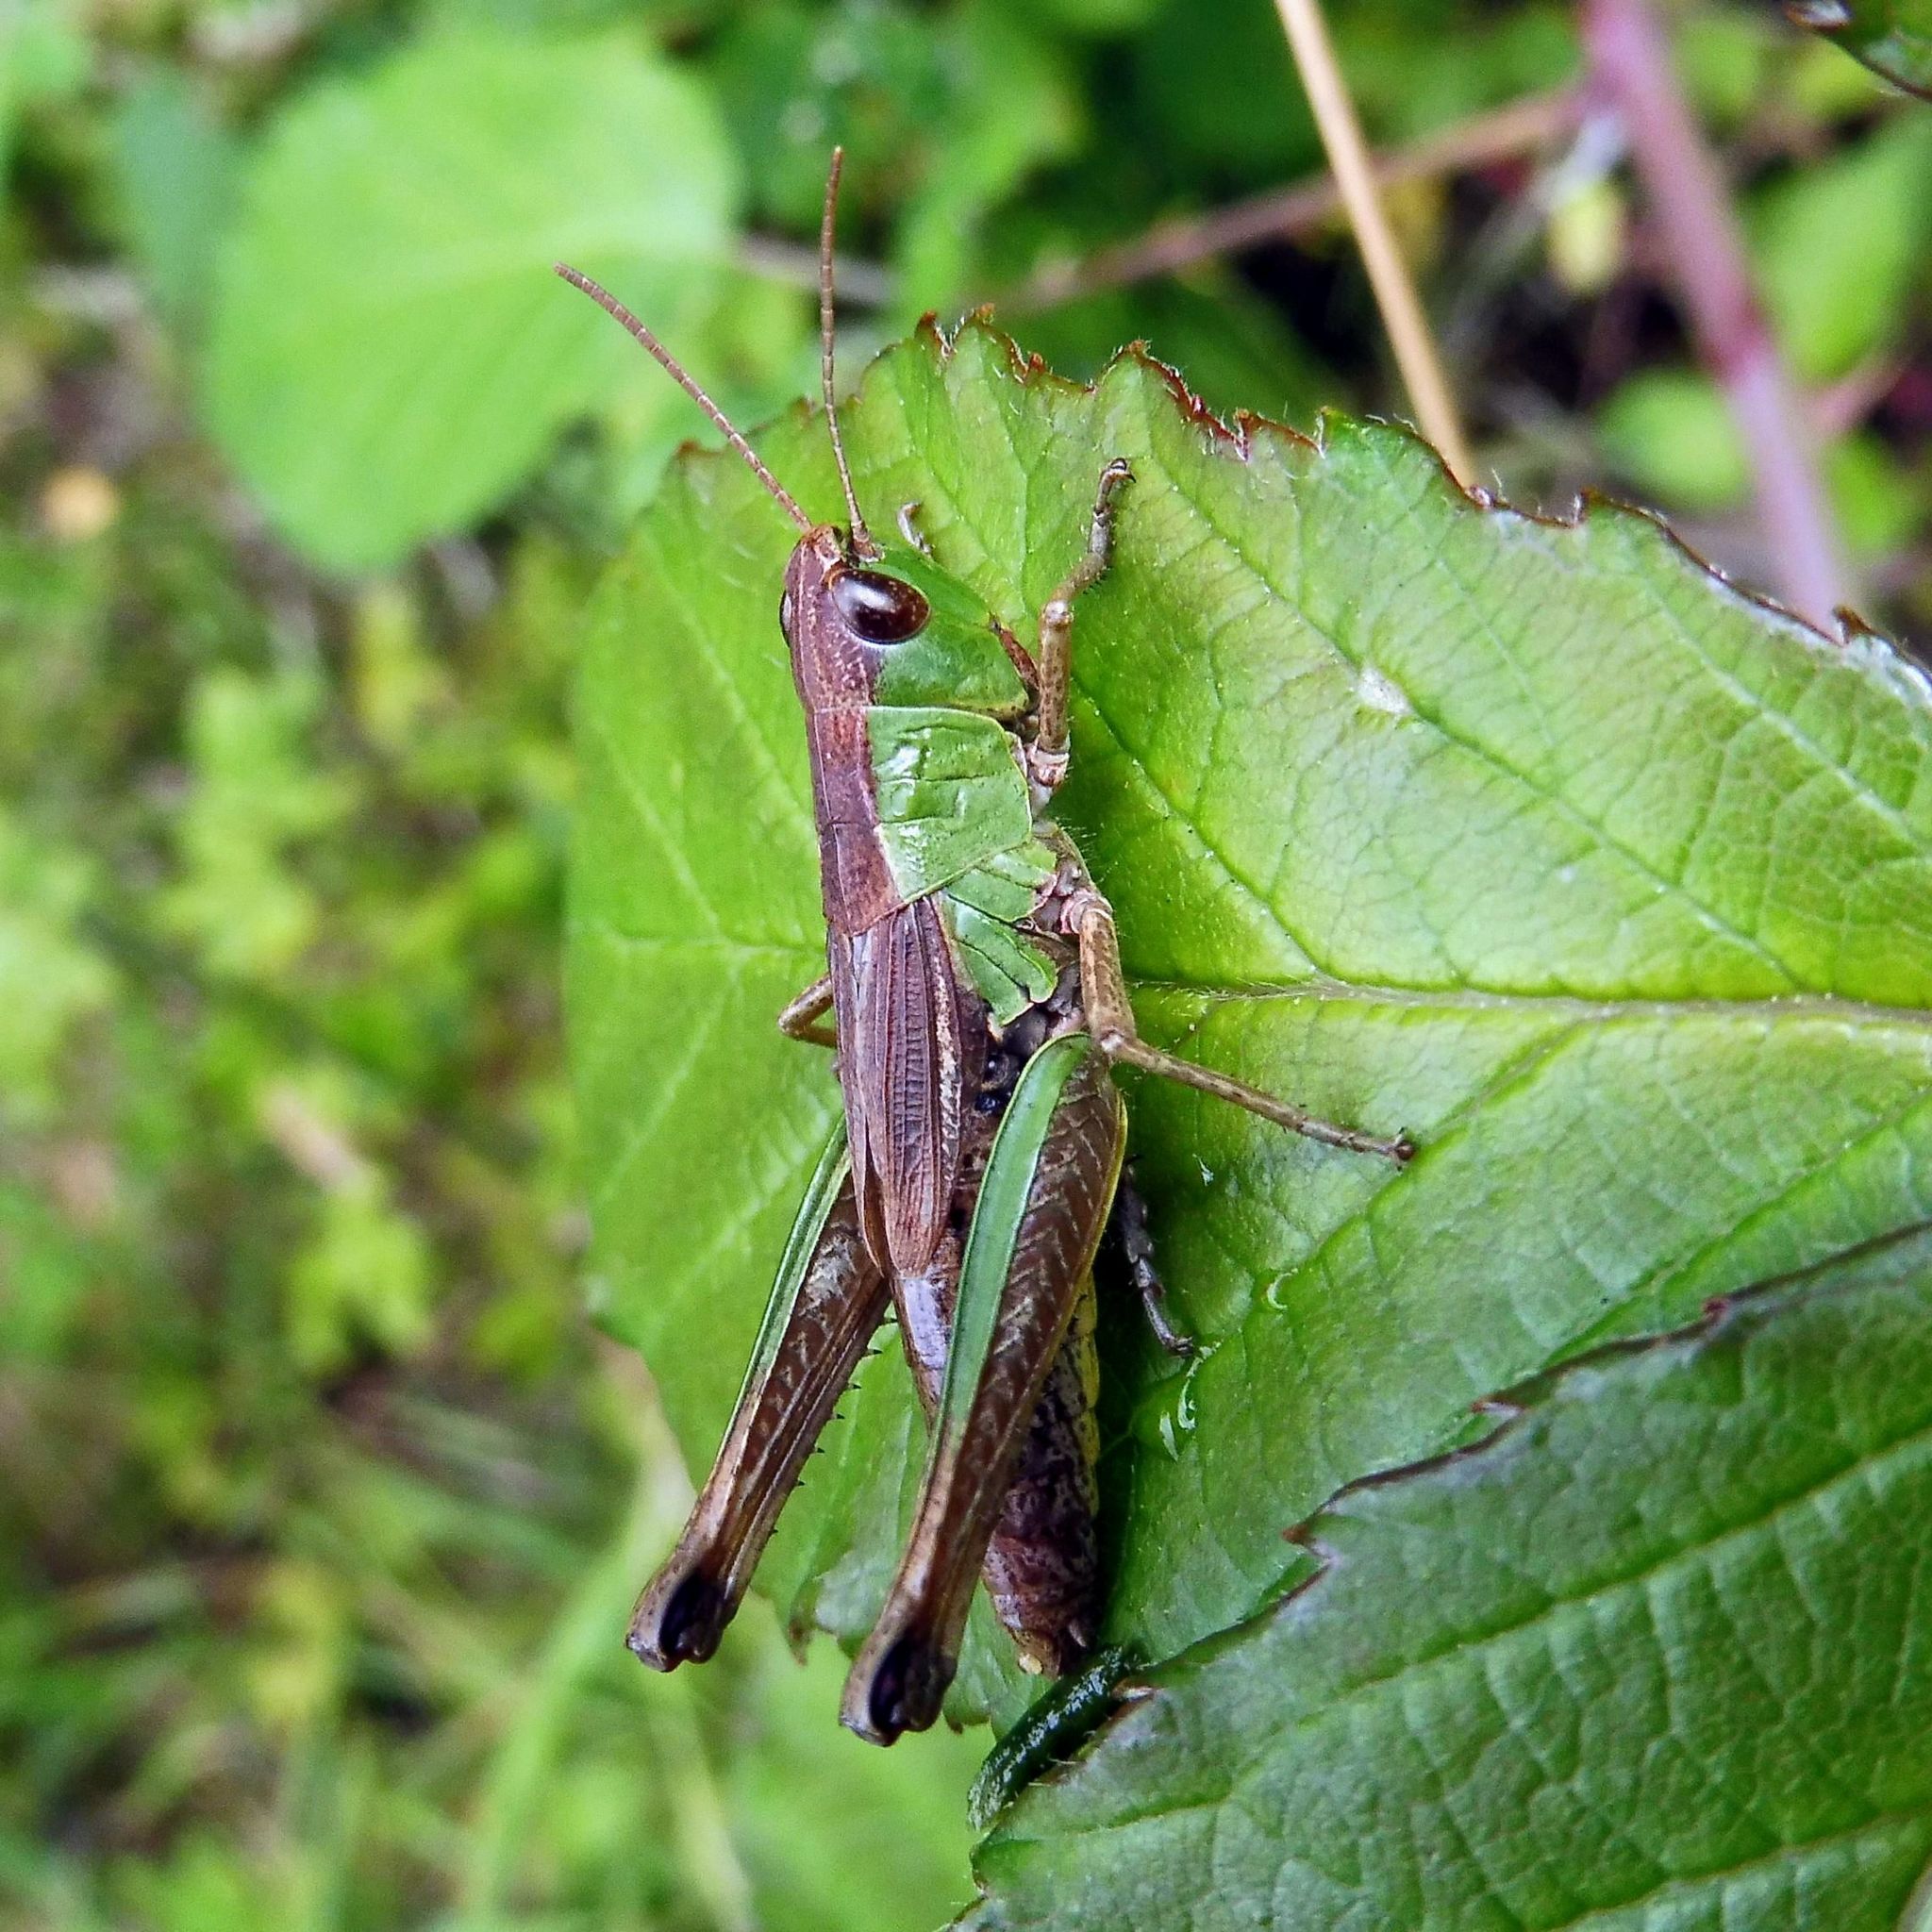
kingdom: Animalia
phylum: Arthropoda
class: Insecta
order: Orthoptera
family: Acrididae
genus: Pseudochorthippus
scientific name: Pseudochorthippus parallelus
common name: Meadow grasshopper
